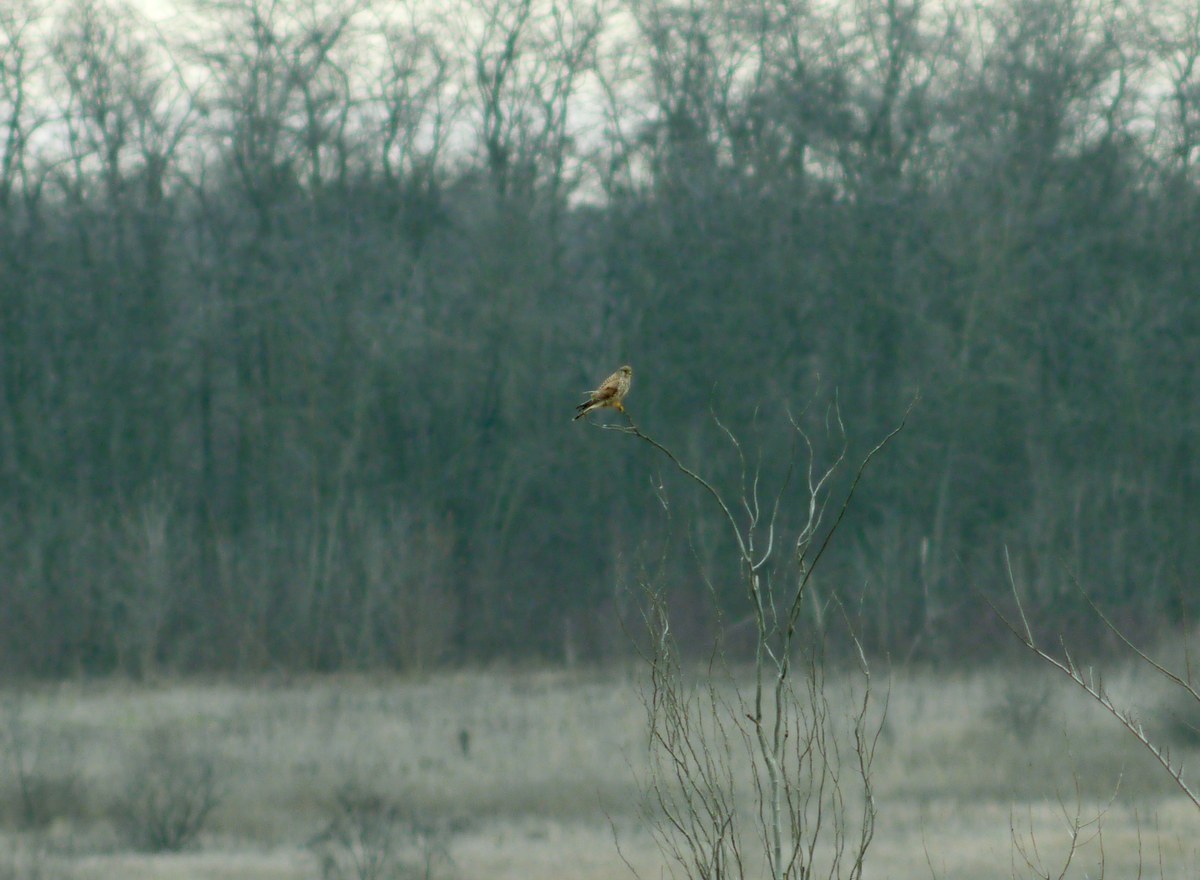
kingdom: Animalia
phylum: Chordata
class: Aves
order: Falconiformes
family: Falconidae
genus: Falco
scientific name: Falco tinnunculus
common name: Common kestrel
